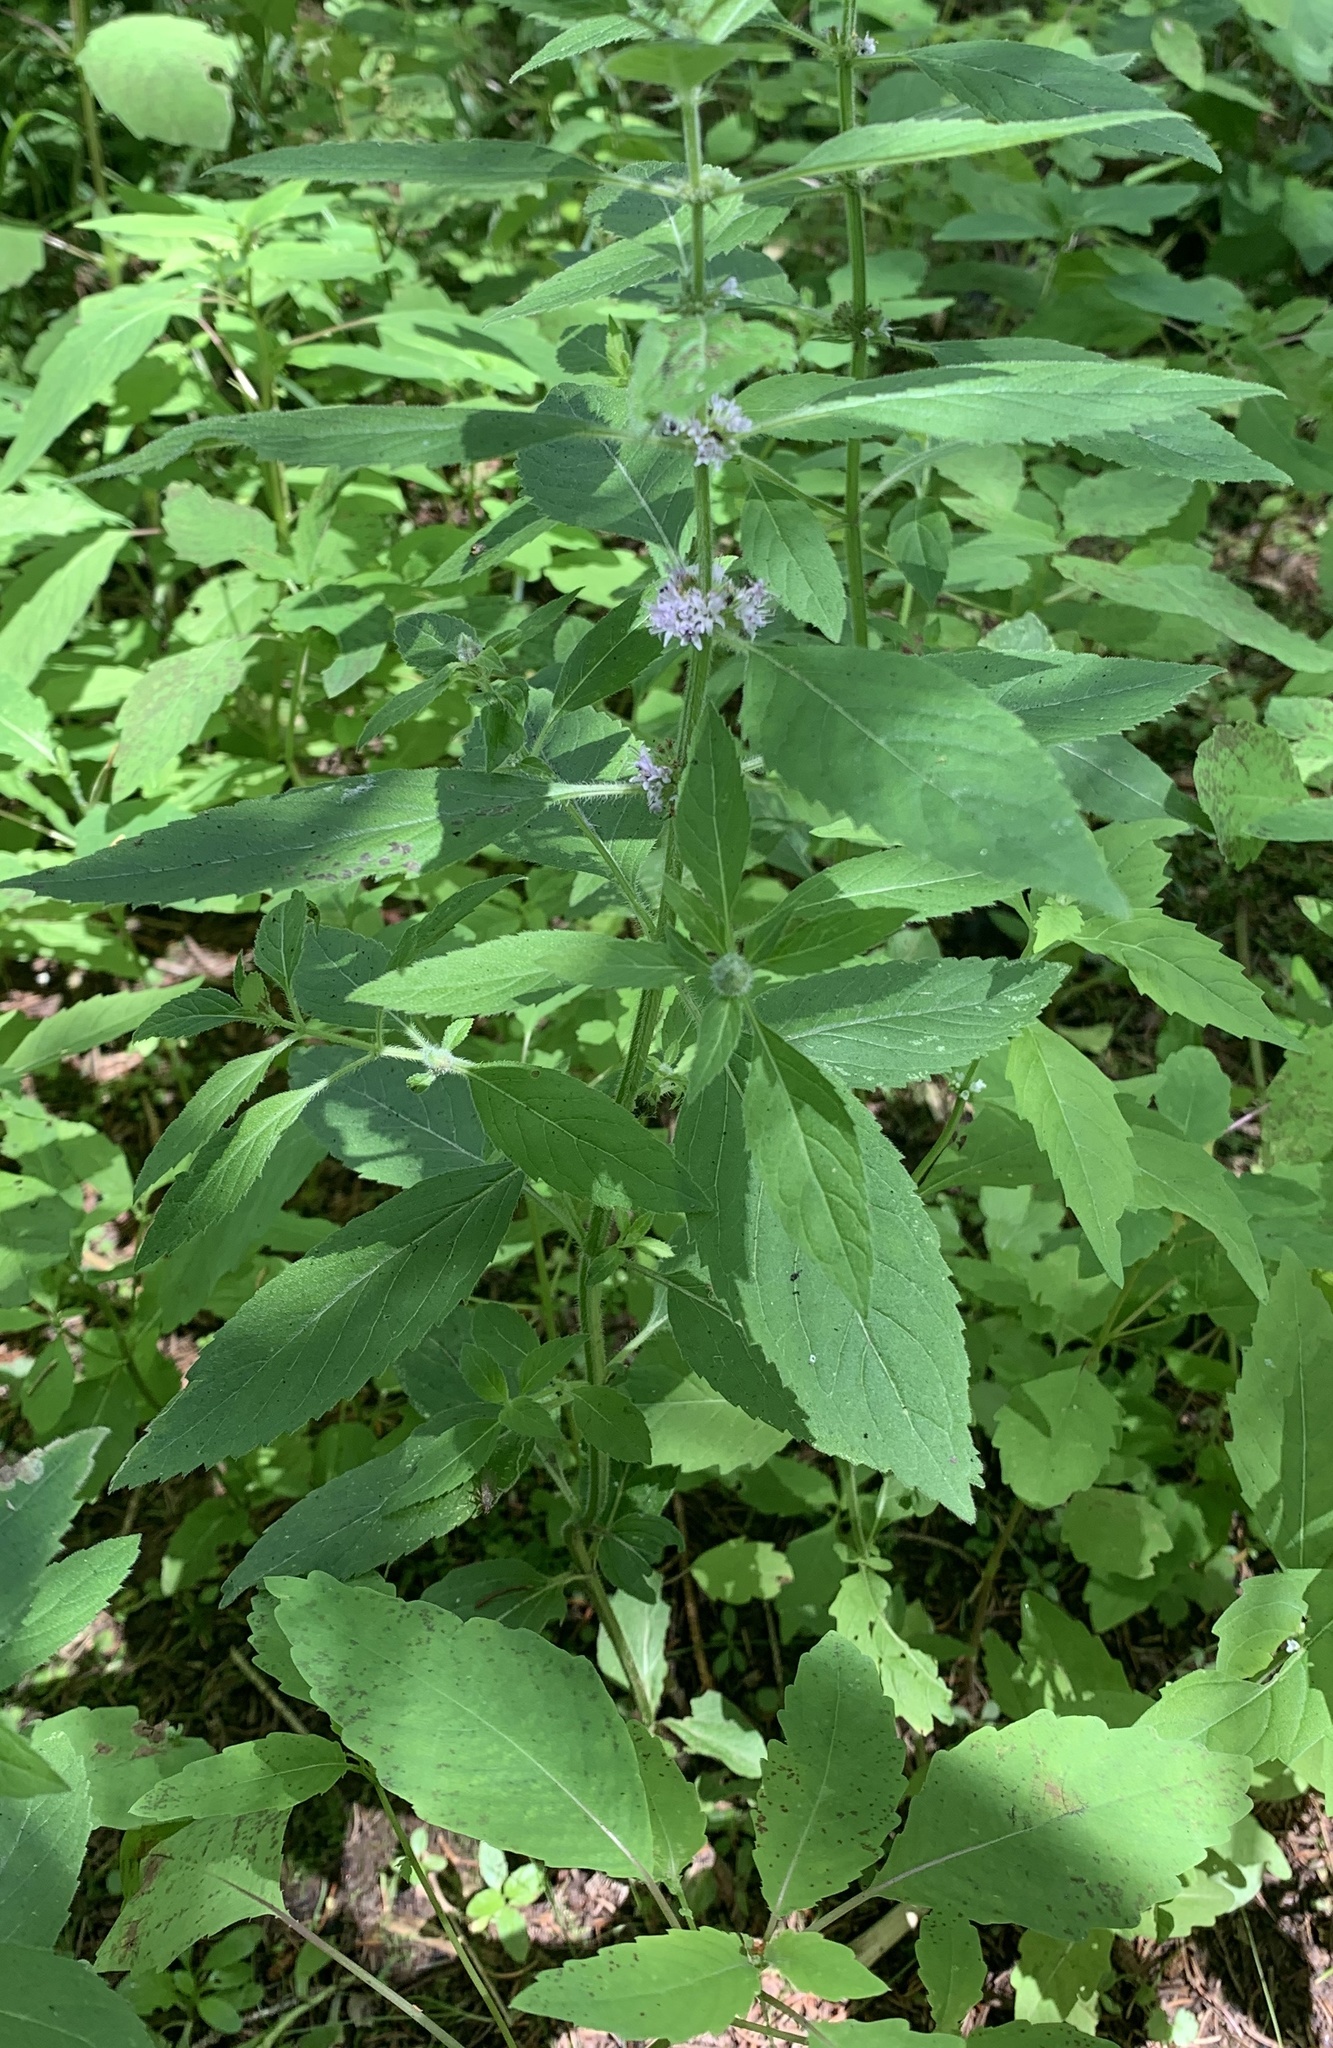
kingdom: Plantae
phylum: Tracheophyta
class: Magnoliopsida
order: Lamiales
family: Lamiaceae
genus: Mentha
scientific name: Mentha canadensis
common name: American corn mint
